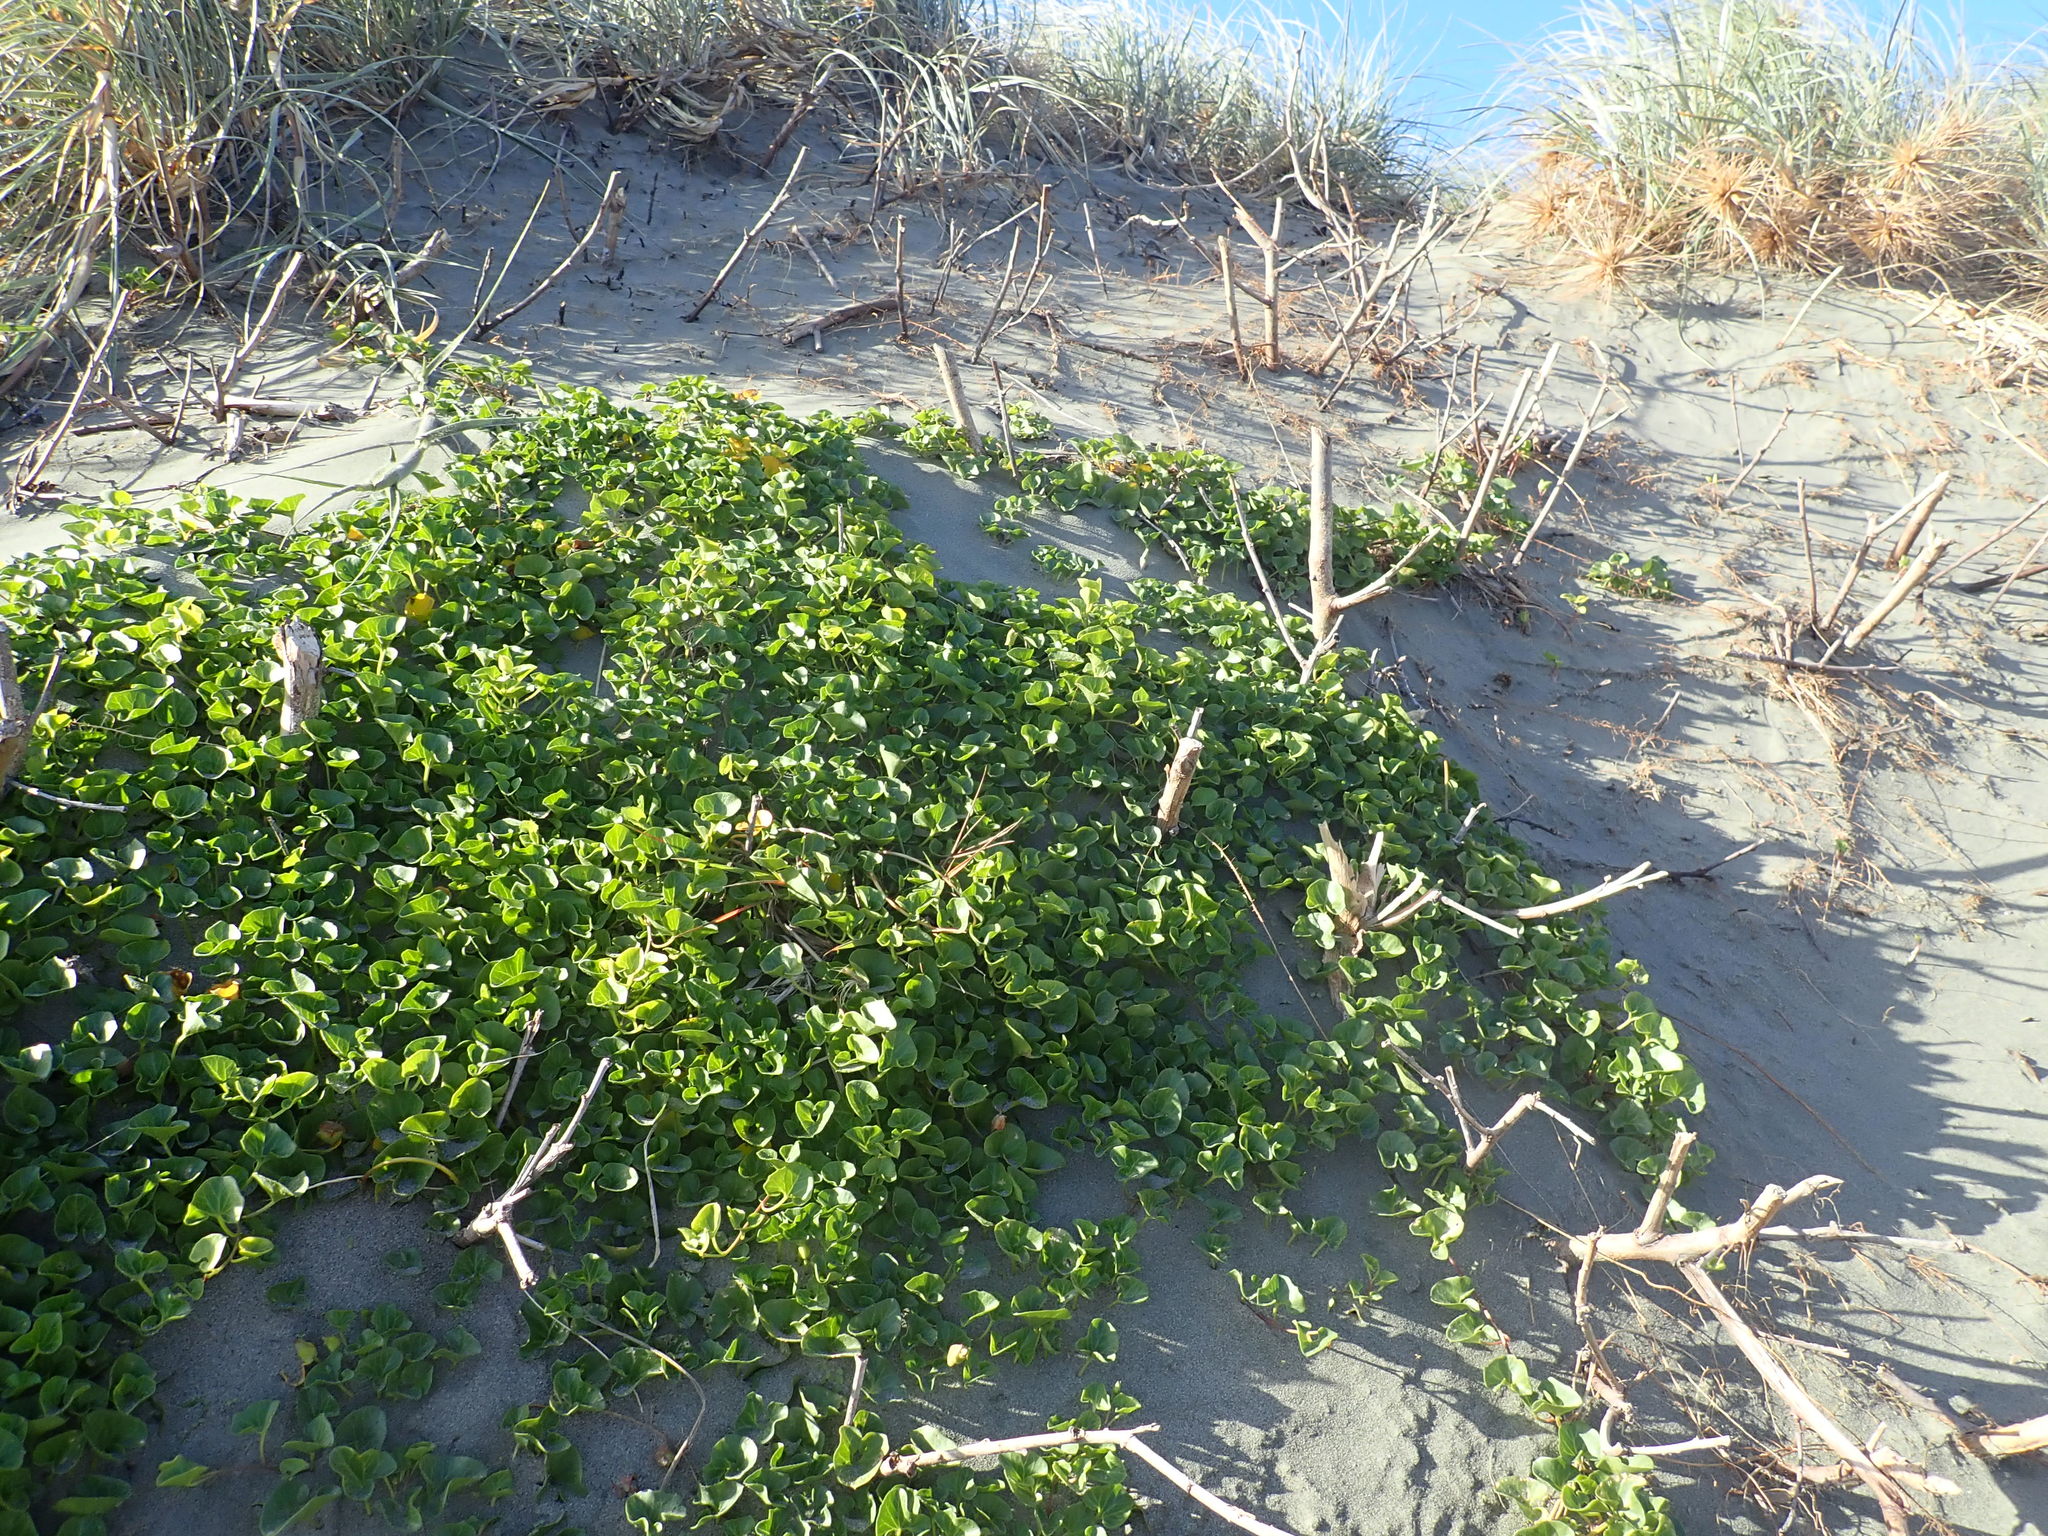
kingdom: Plantae
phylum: Tracheophyta
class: Magnoliopsida
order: Solanales
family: Convolvulaceae
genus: Calystegia
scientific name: Calystegia soldanella
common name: Sea bindweed
